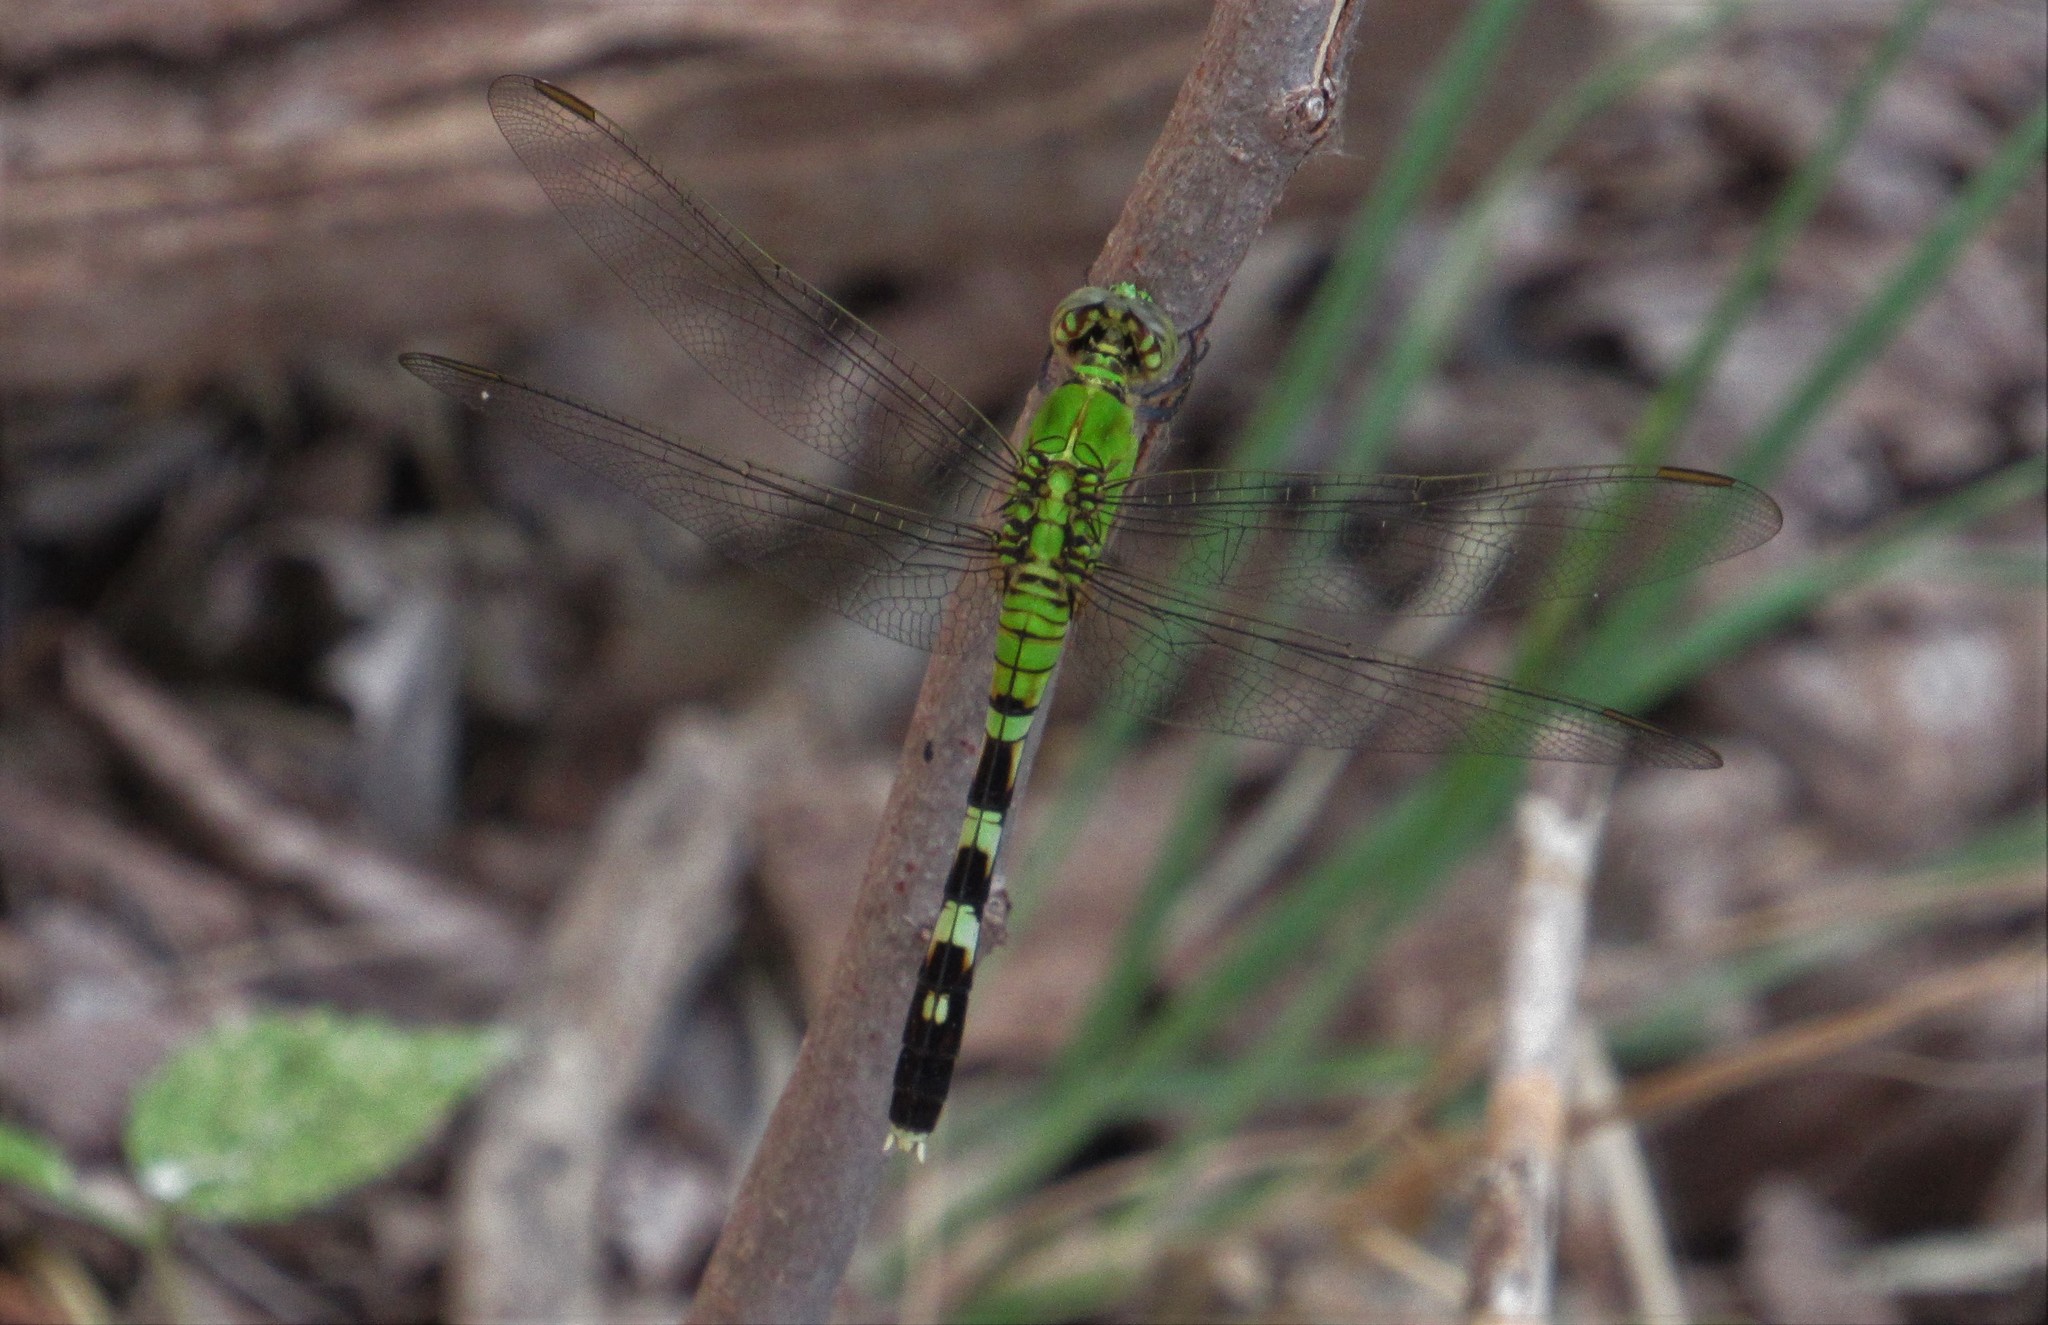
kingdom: Animalia
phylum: Arthropoda
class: Insecta
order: Odonata
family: Libellulidae
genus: Erythemis
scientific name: Erythemis simplicicollis
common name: Eastern pondhawk
